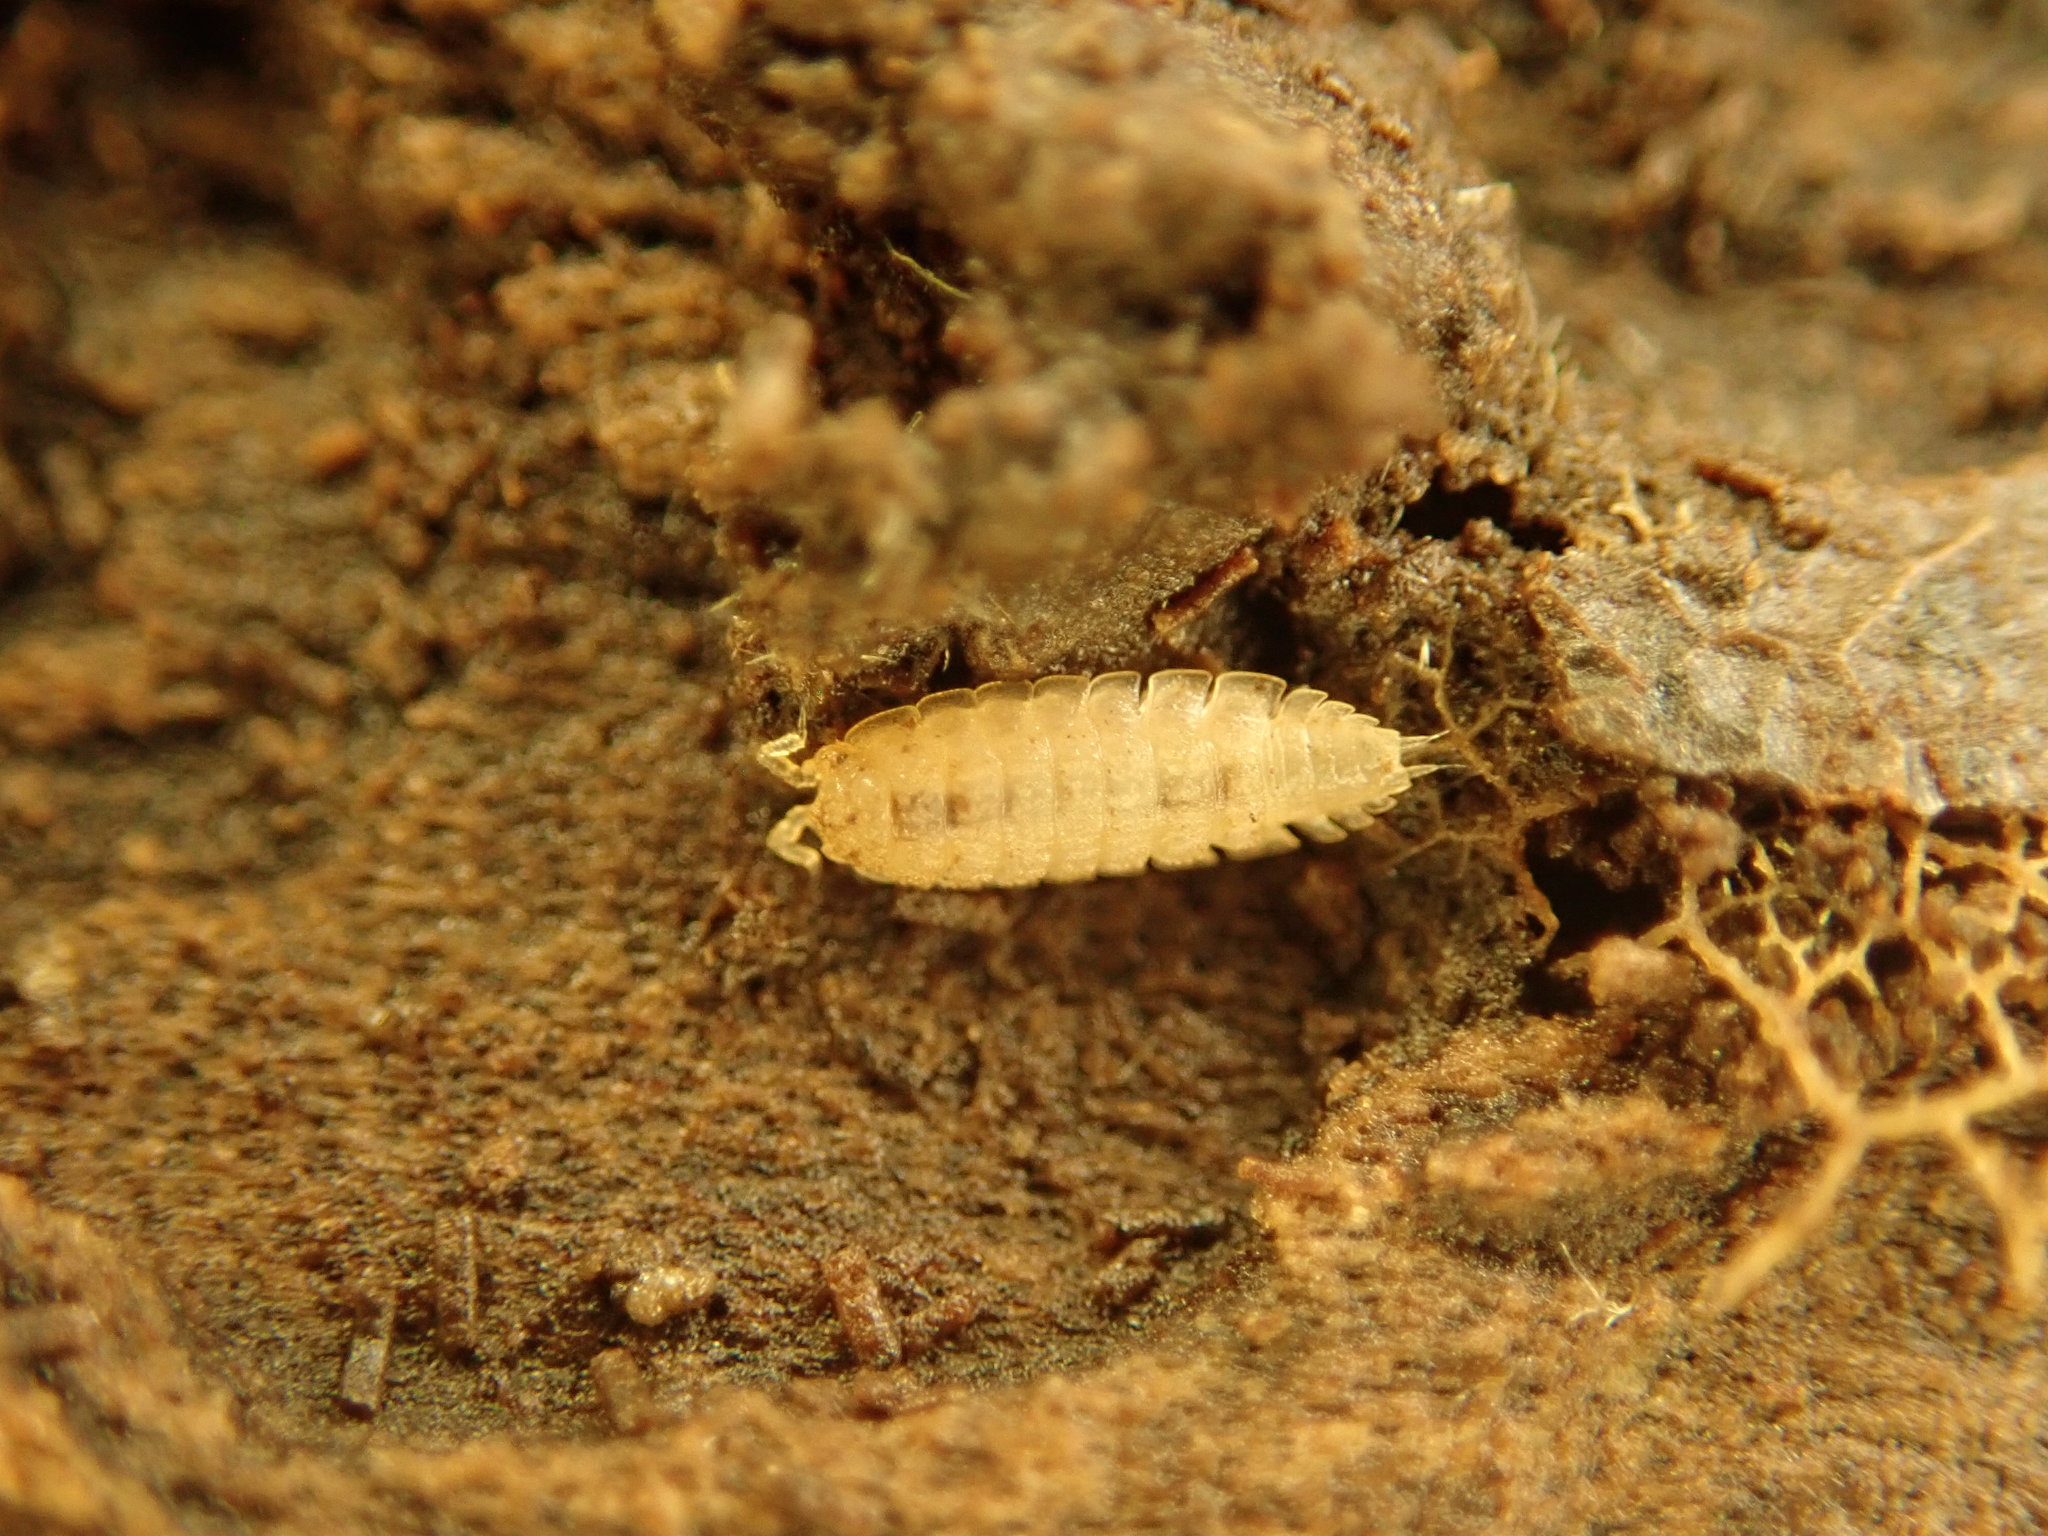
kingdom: Animalia
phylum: Arthropoda
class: Malacostraca
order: Isopoda
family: Trichoniscidae
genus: Haplophthalmus
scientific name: Haplophthalmus danicus
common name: Pillbug
